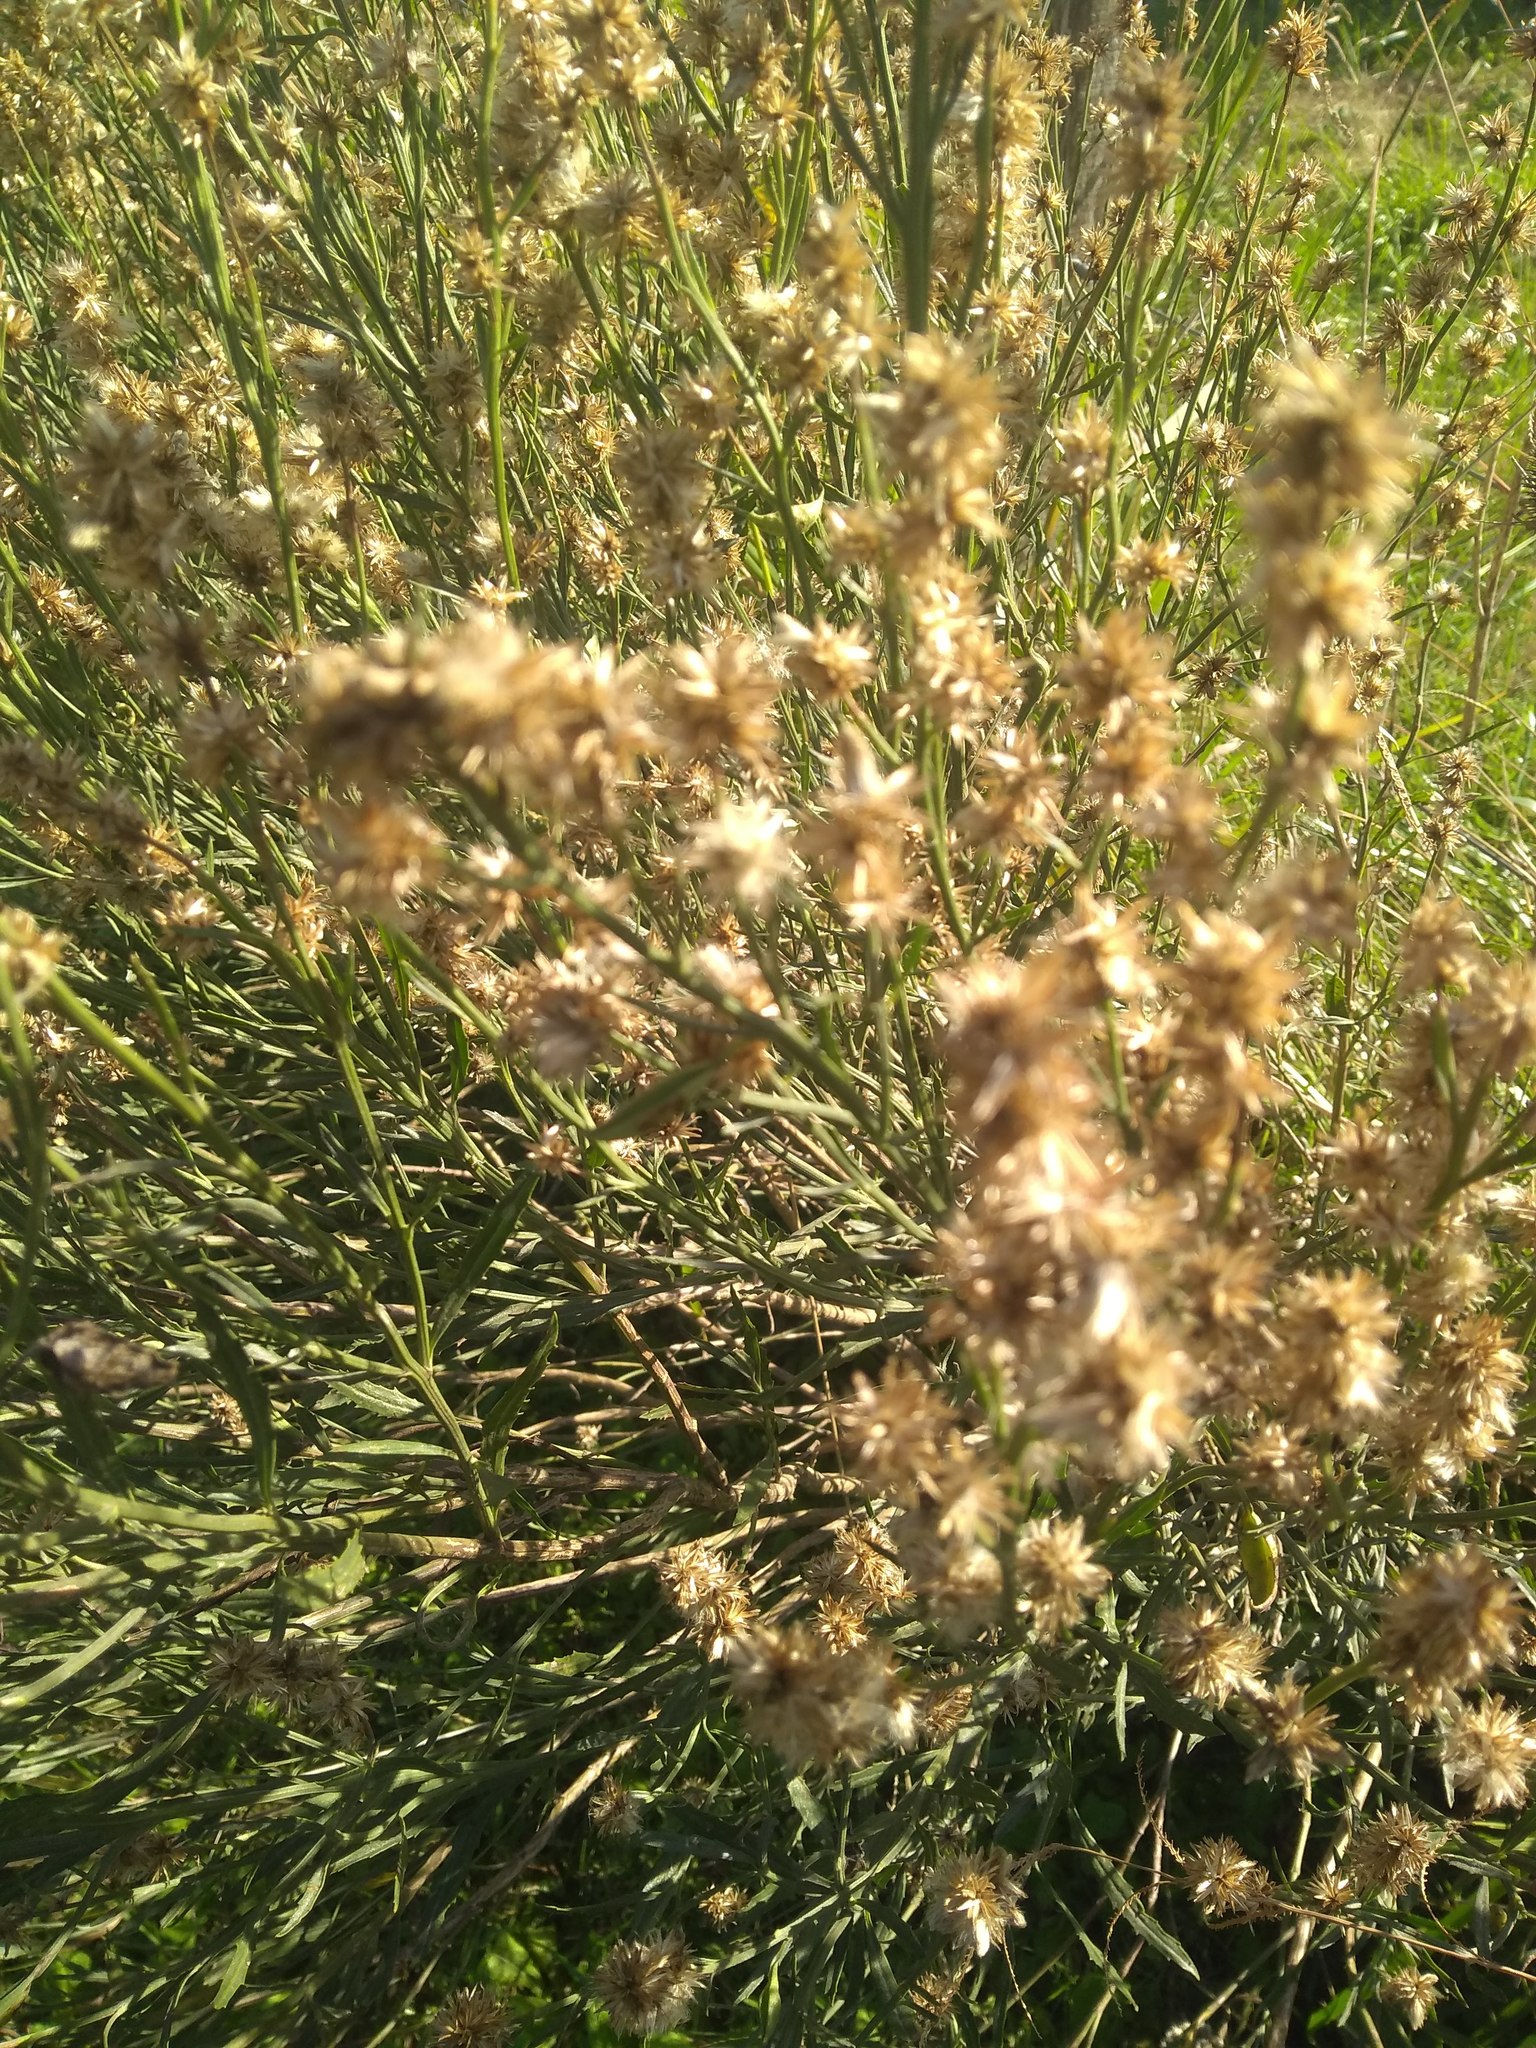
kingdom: Plantae
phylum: Tracheophyta
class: Magnoliopsida
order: Asterales
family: Asteraceae
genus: Baccharis
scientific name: Baccharis spicata
